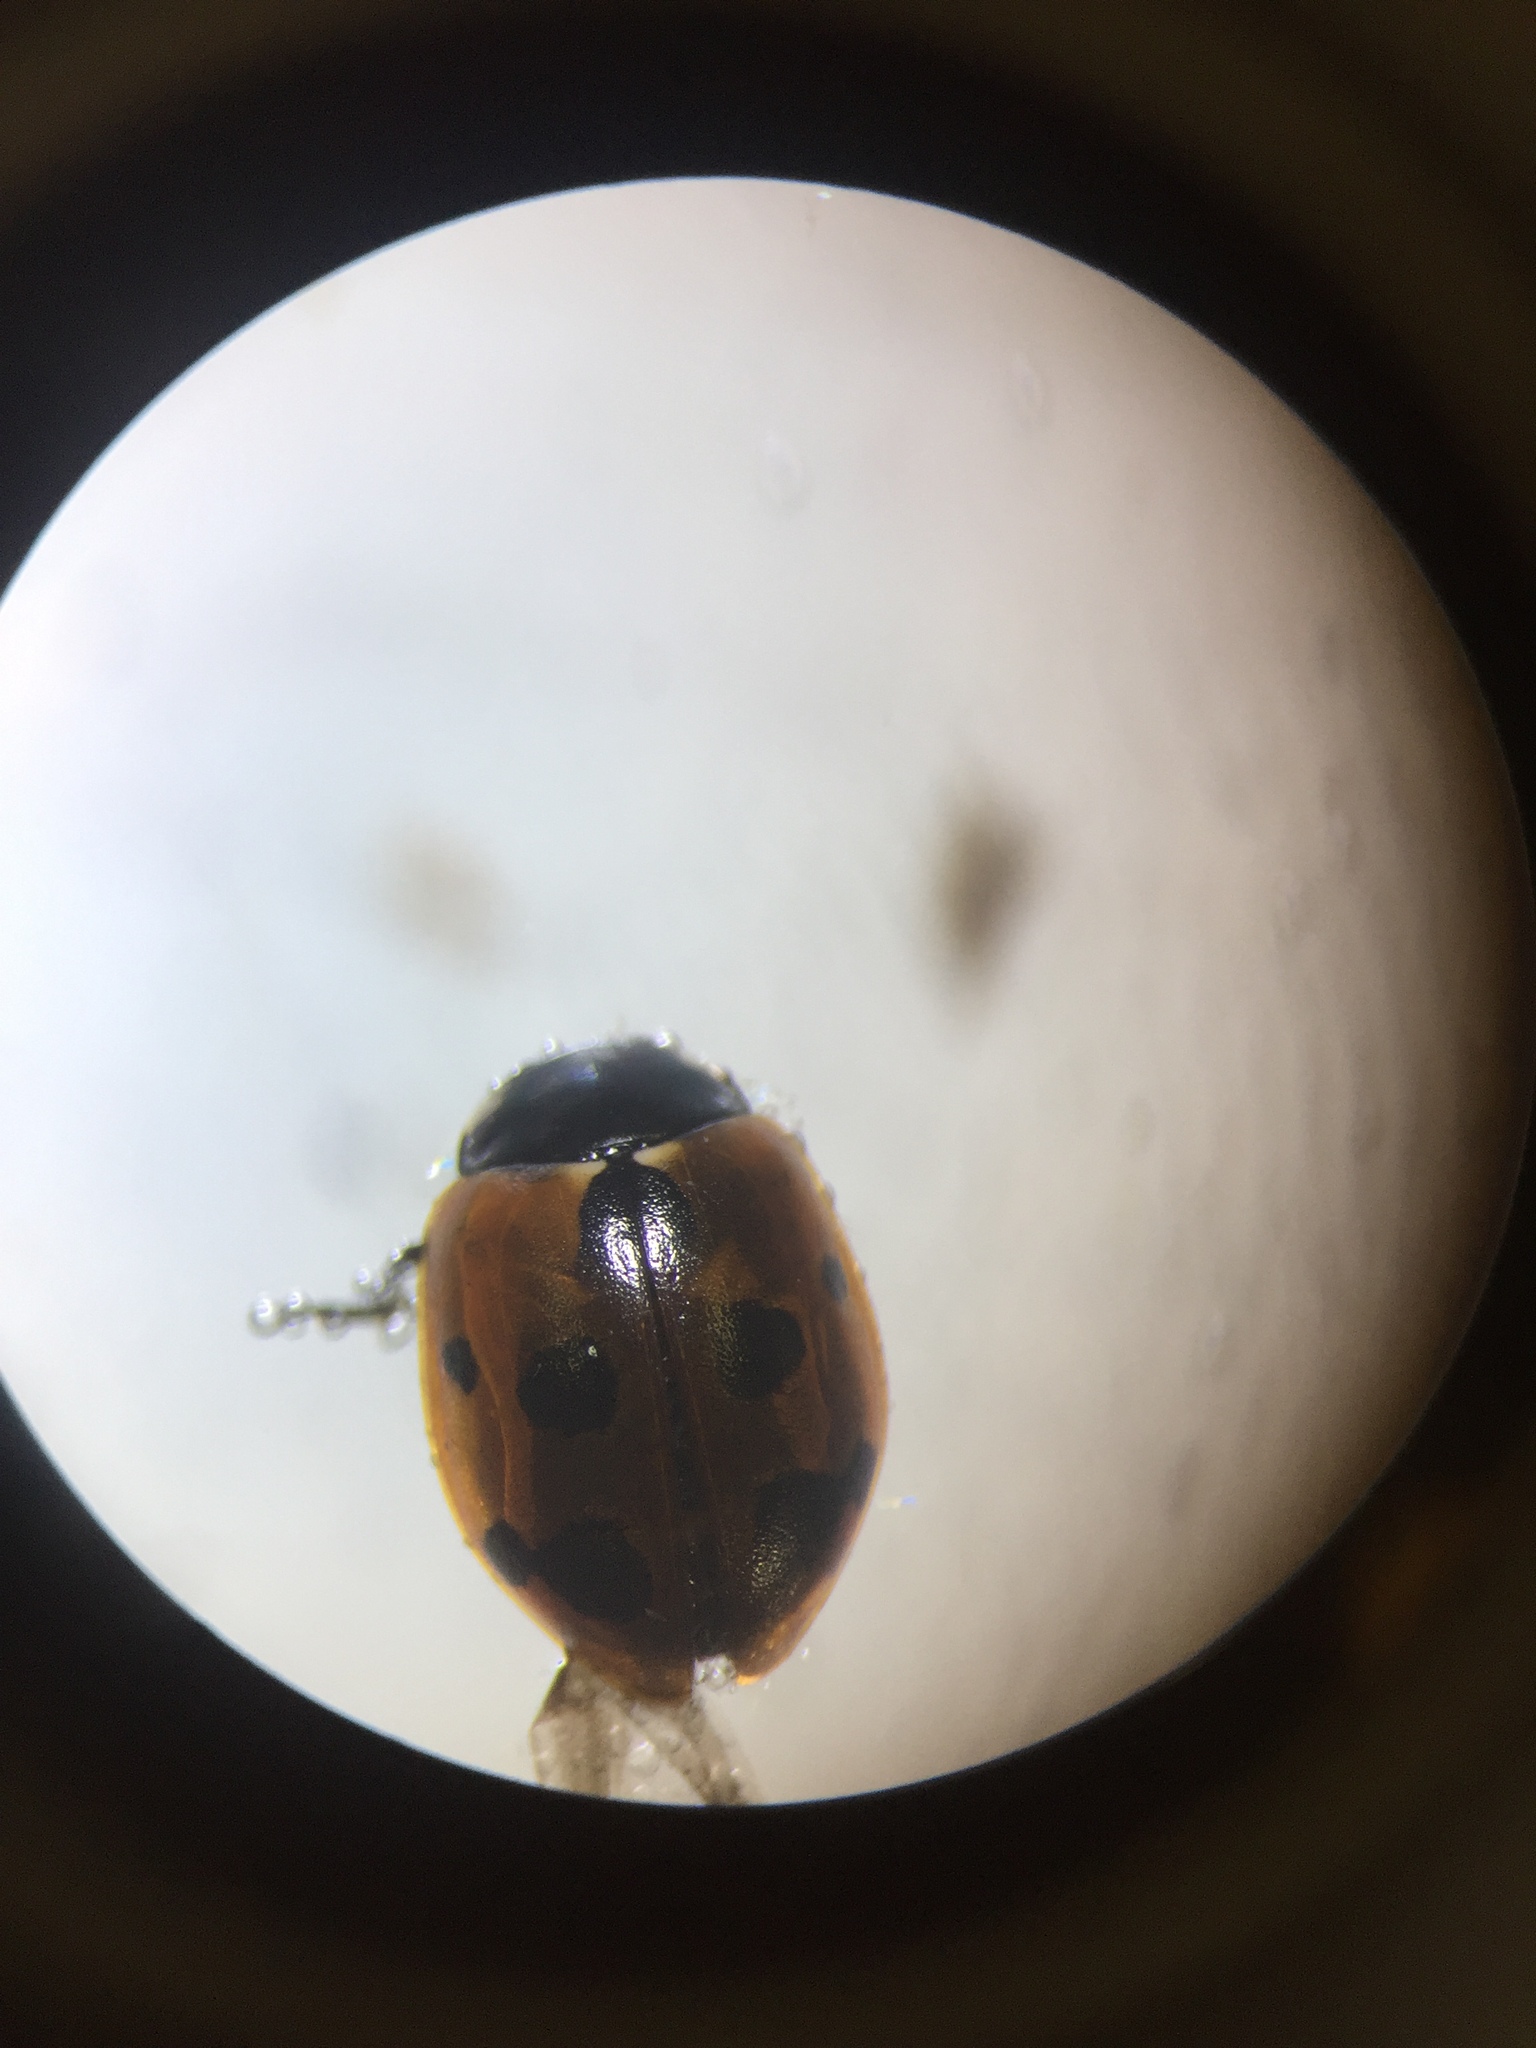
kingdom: Animalia
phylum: Arthropoda
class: Insecta
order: Coleoptera
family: Coccinellidae
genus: Coccinella
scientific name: Coccinella undecimpunctata
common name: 11-spot ladybird
